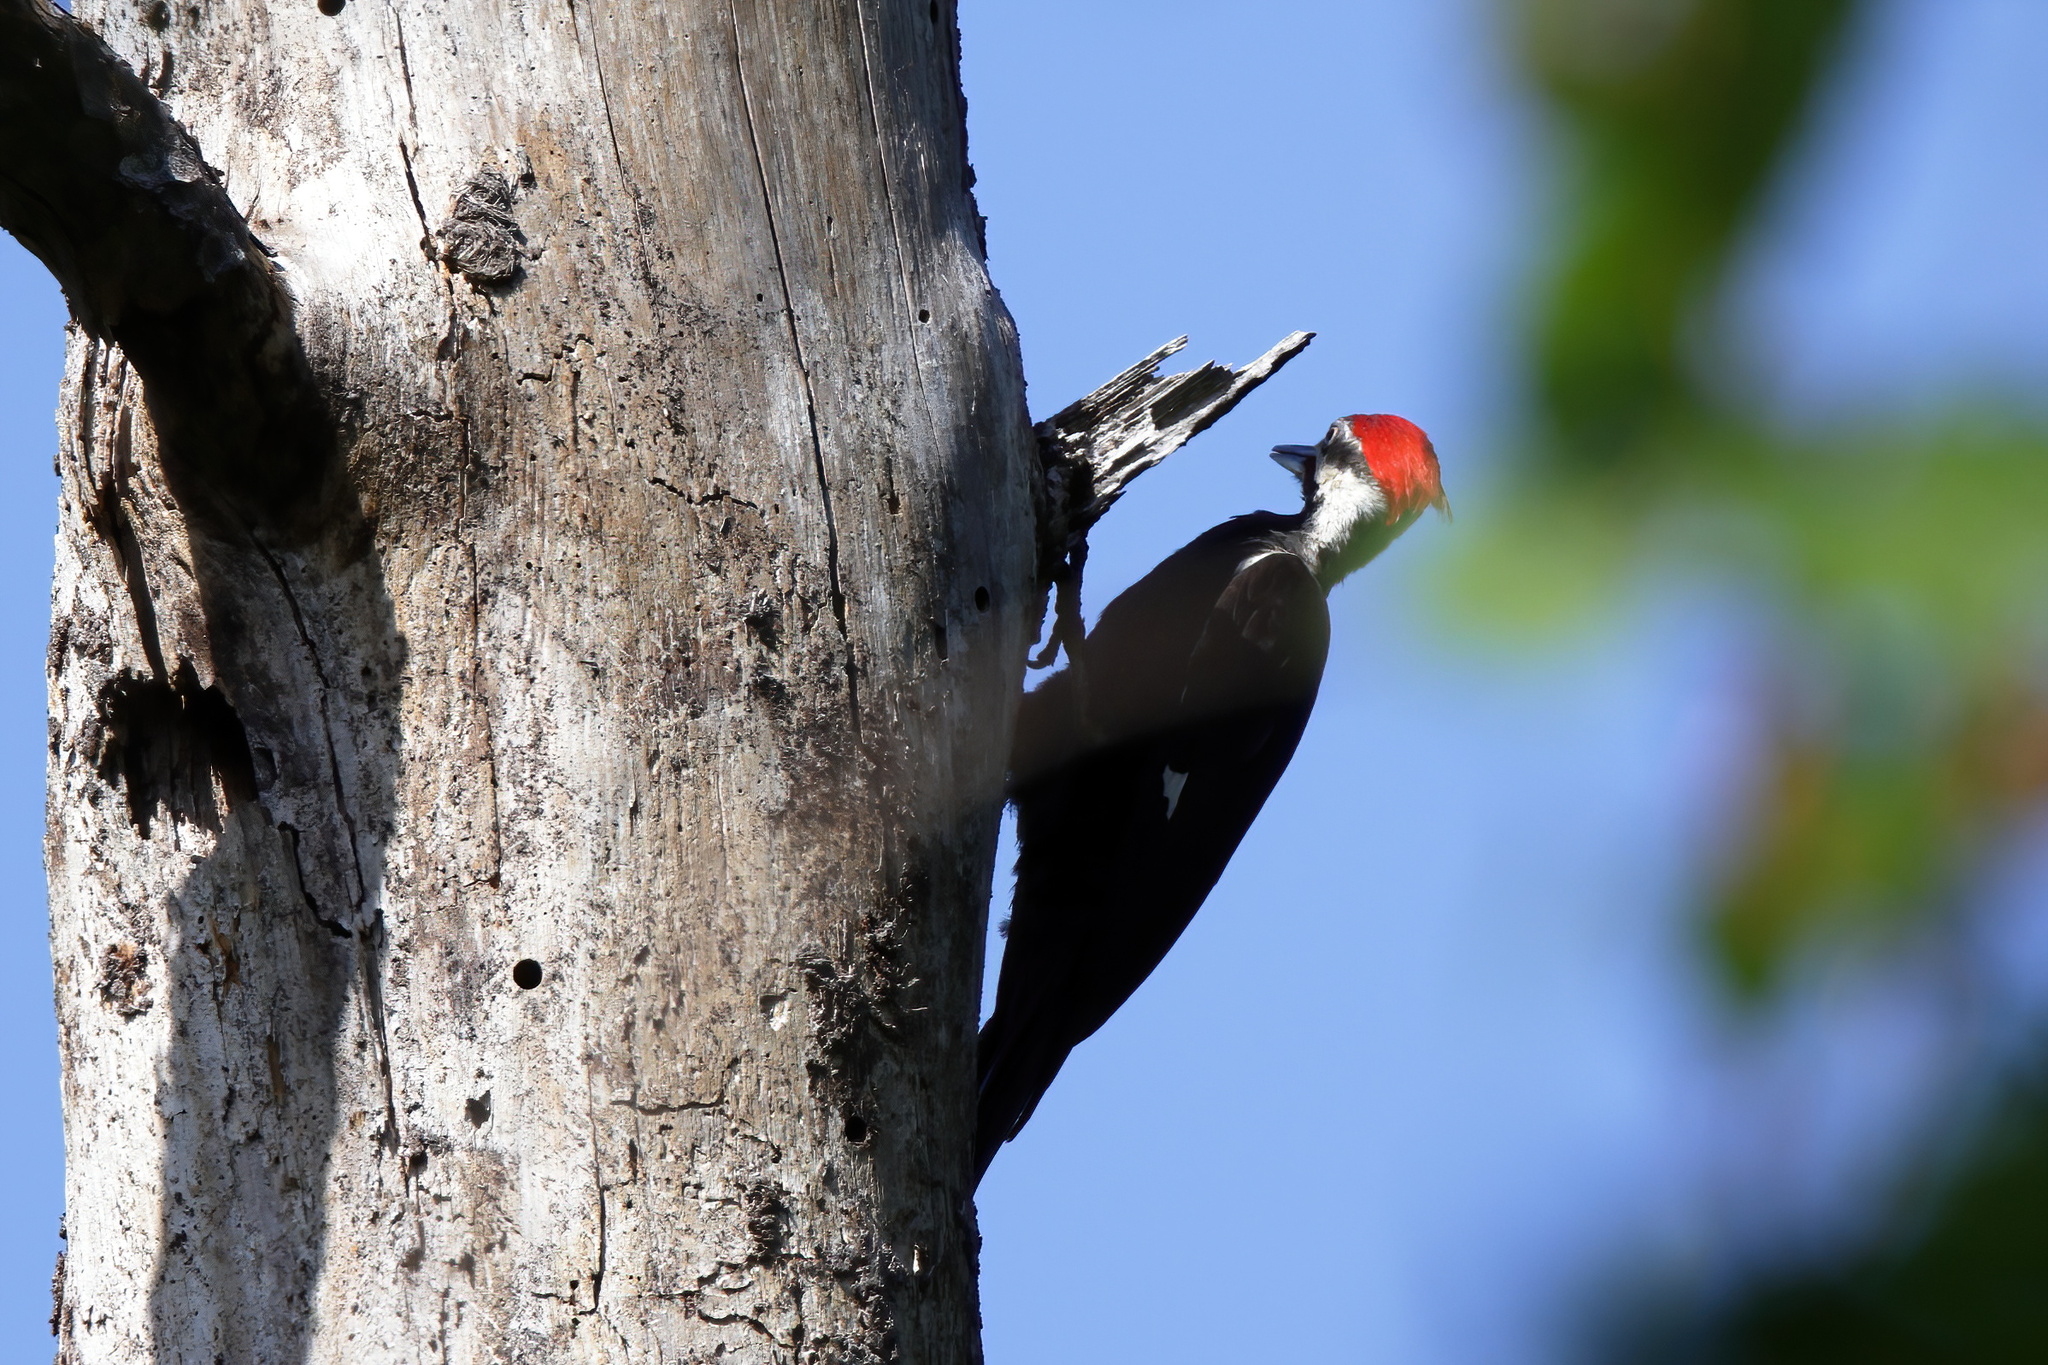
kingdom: Animalia
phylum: Chordata
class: Aves
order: Piciformes
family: Picidae
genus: Dryocopus
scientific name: Dryocopus pileatus
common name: Pileated woodpecker
